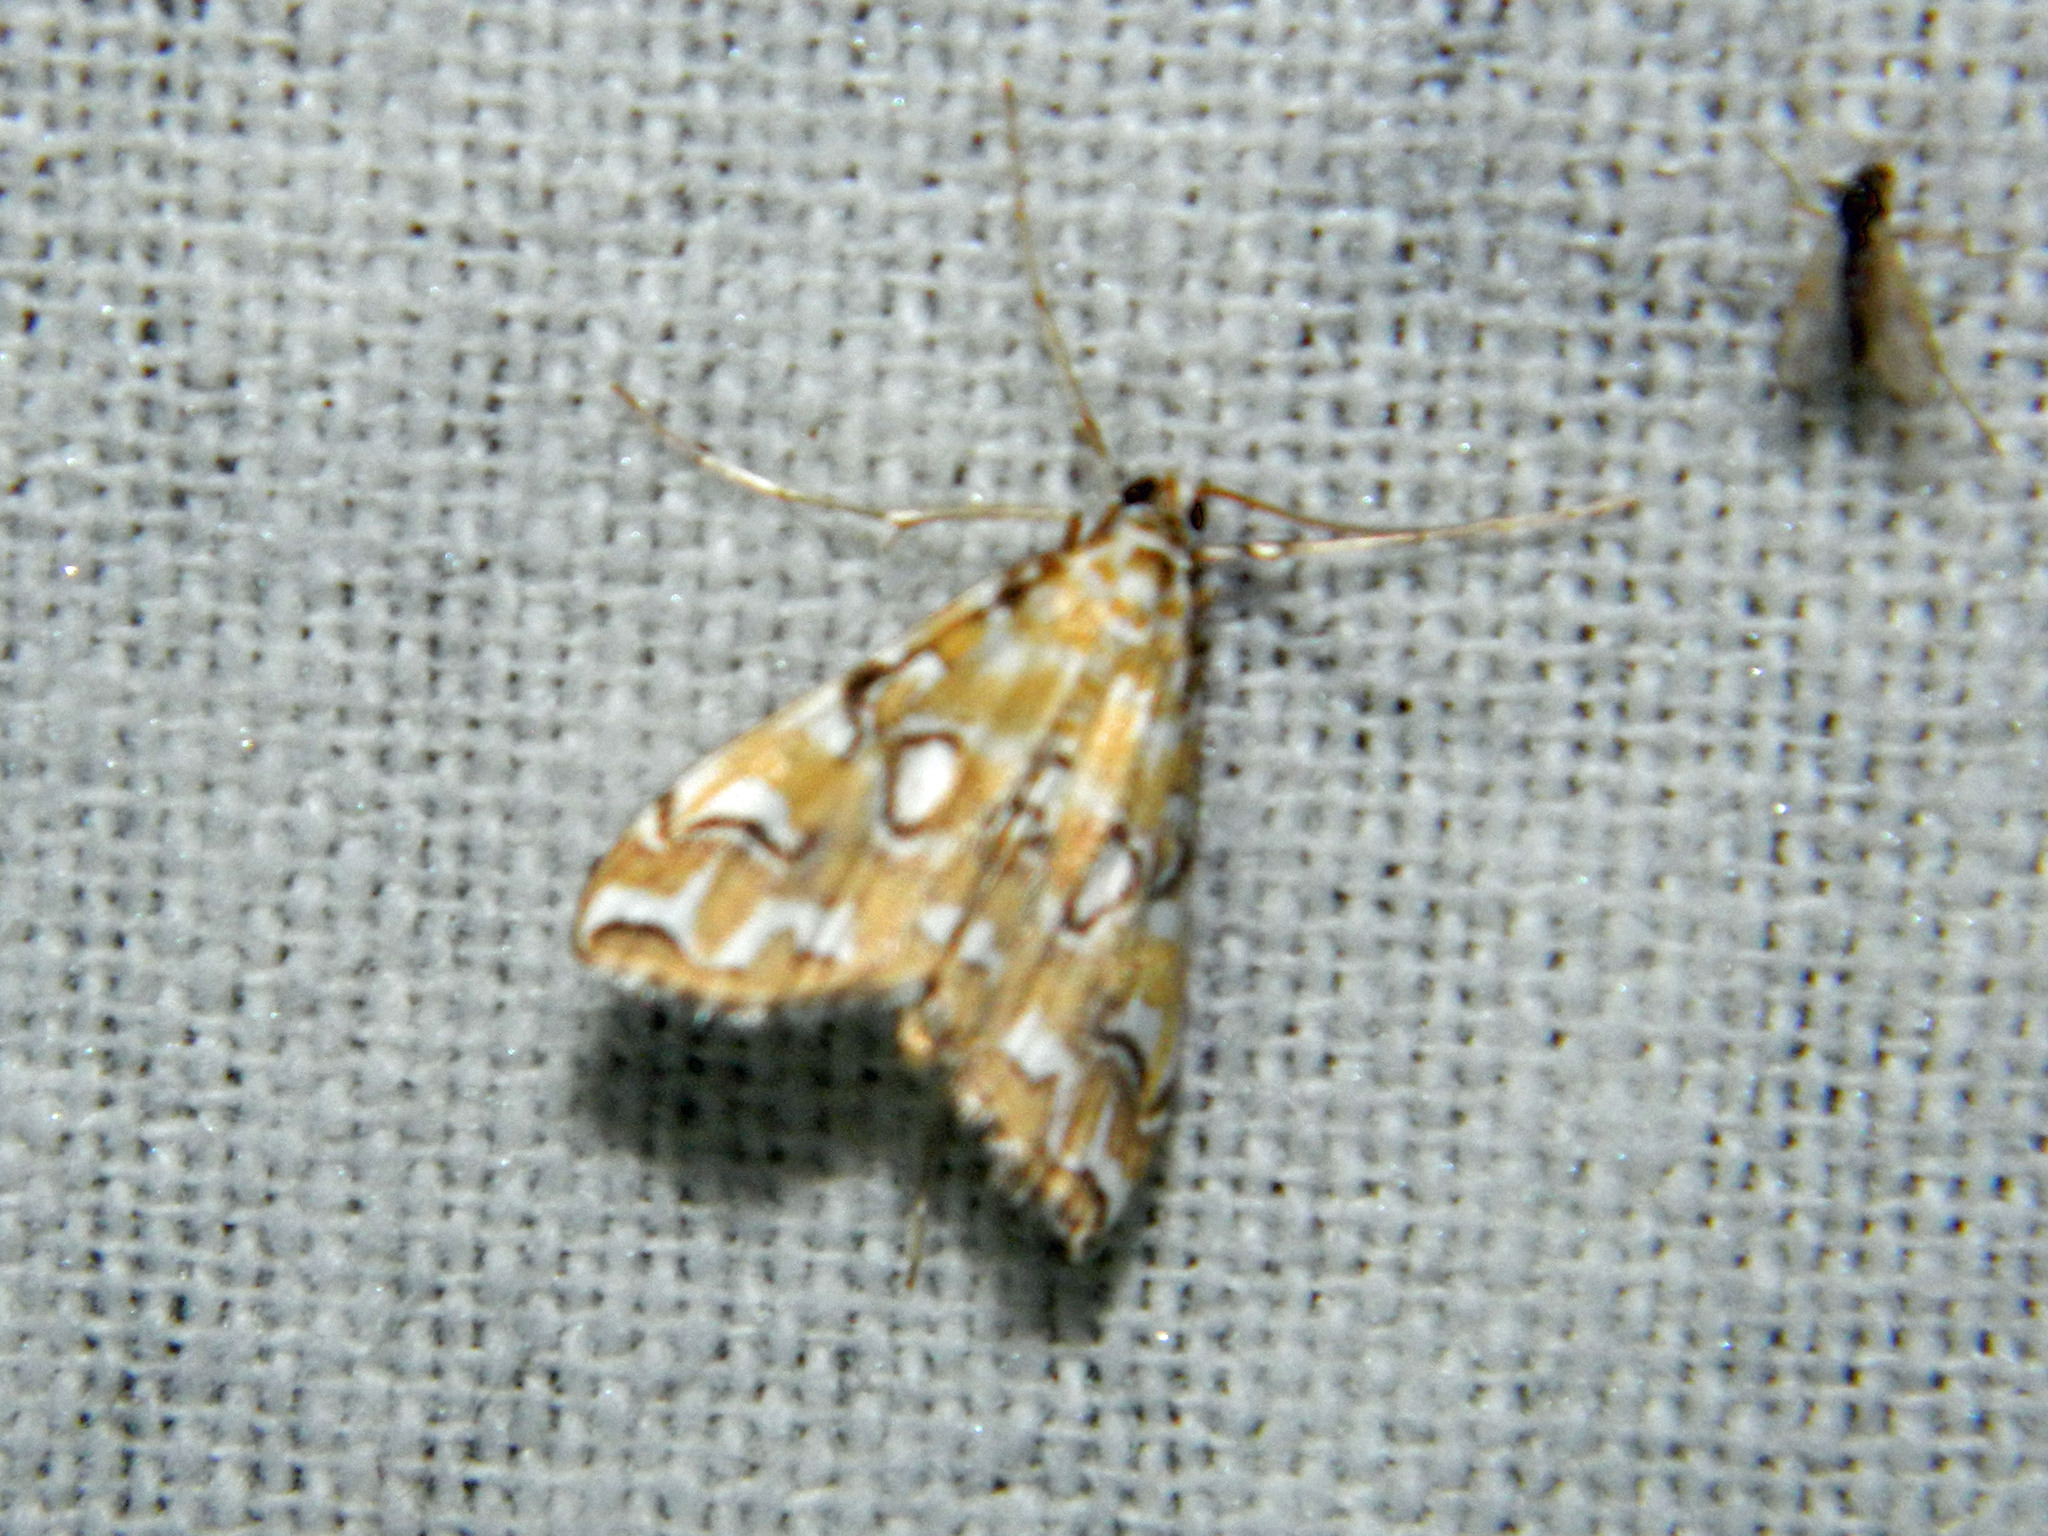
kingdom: Animalia
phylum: Arthropoda
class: Insecta
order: Lepidoptera
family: Crambidae
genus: Elophila
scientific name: Elophila icciusalis
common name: Pondside pyralid moth
